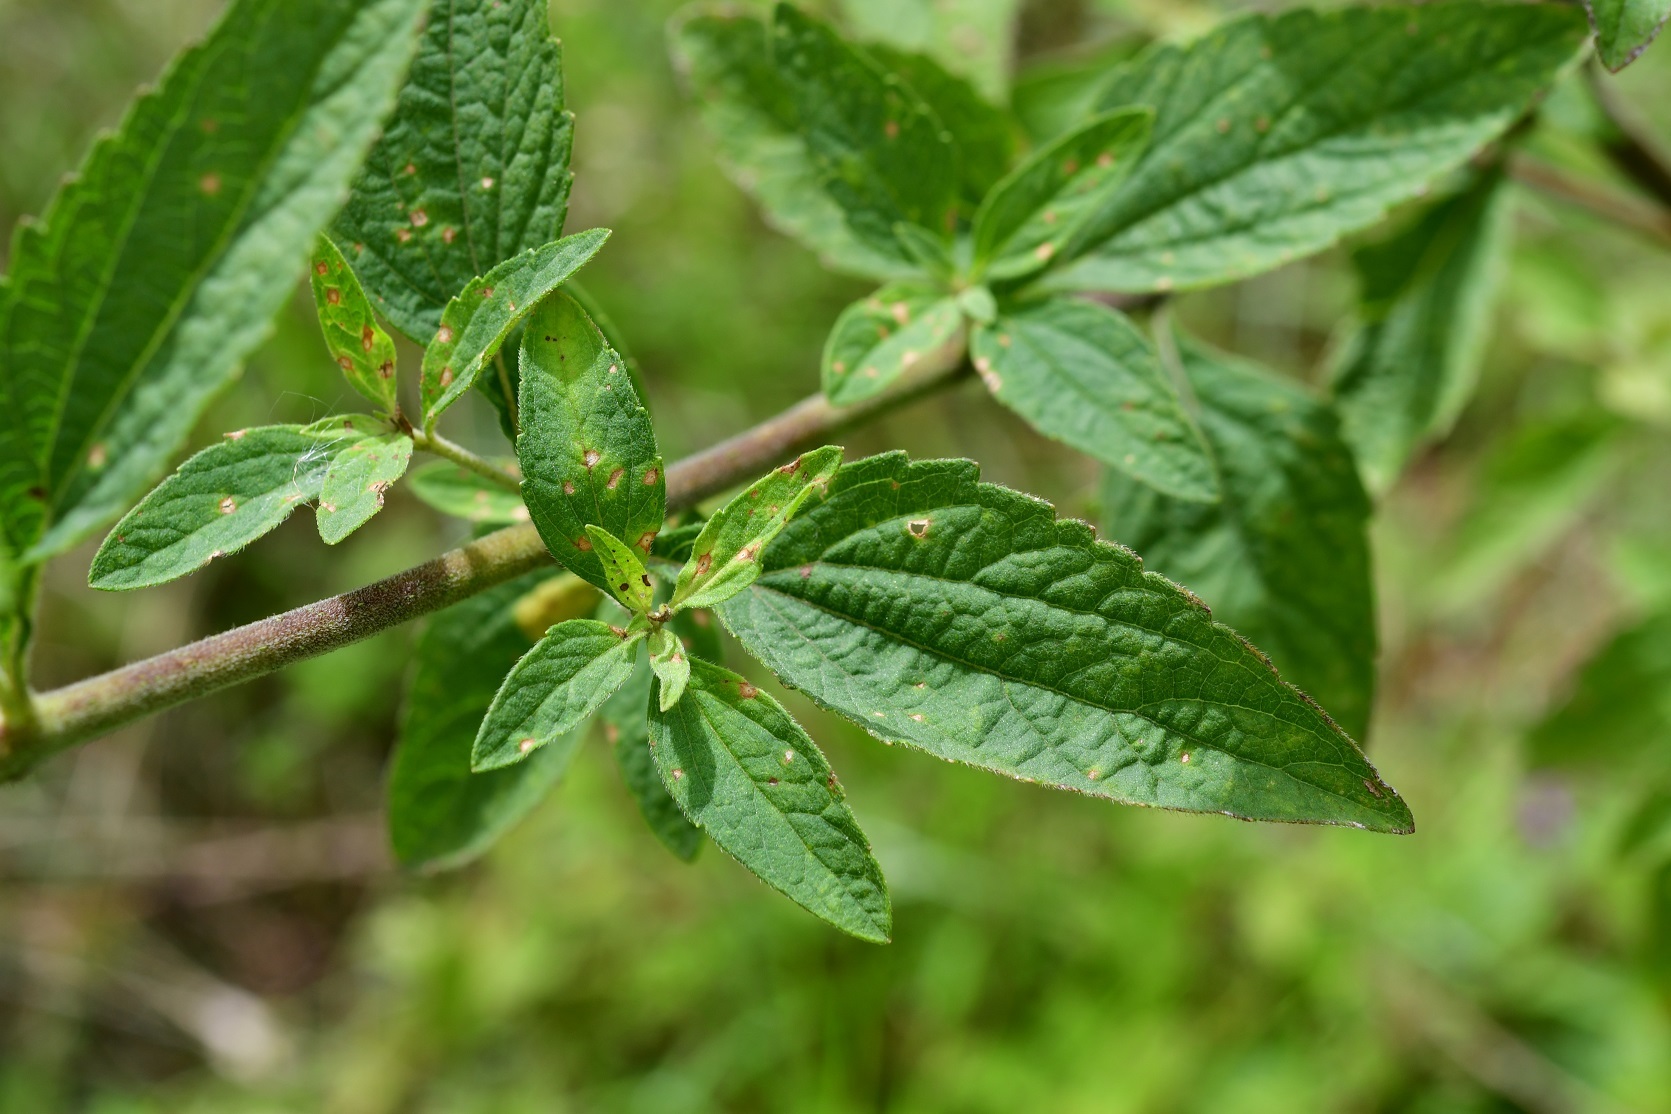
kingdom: Plantae
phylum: Tracheophyta
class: Magnoliopsida
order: Asterales
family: Asteraceae
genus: Stevia
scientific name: Stevia ovata
